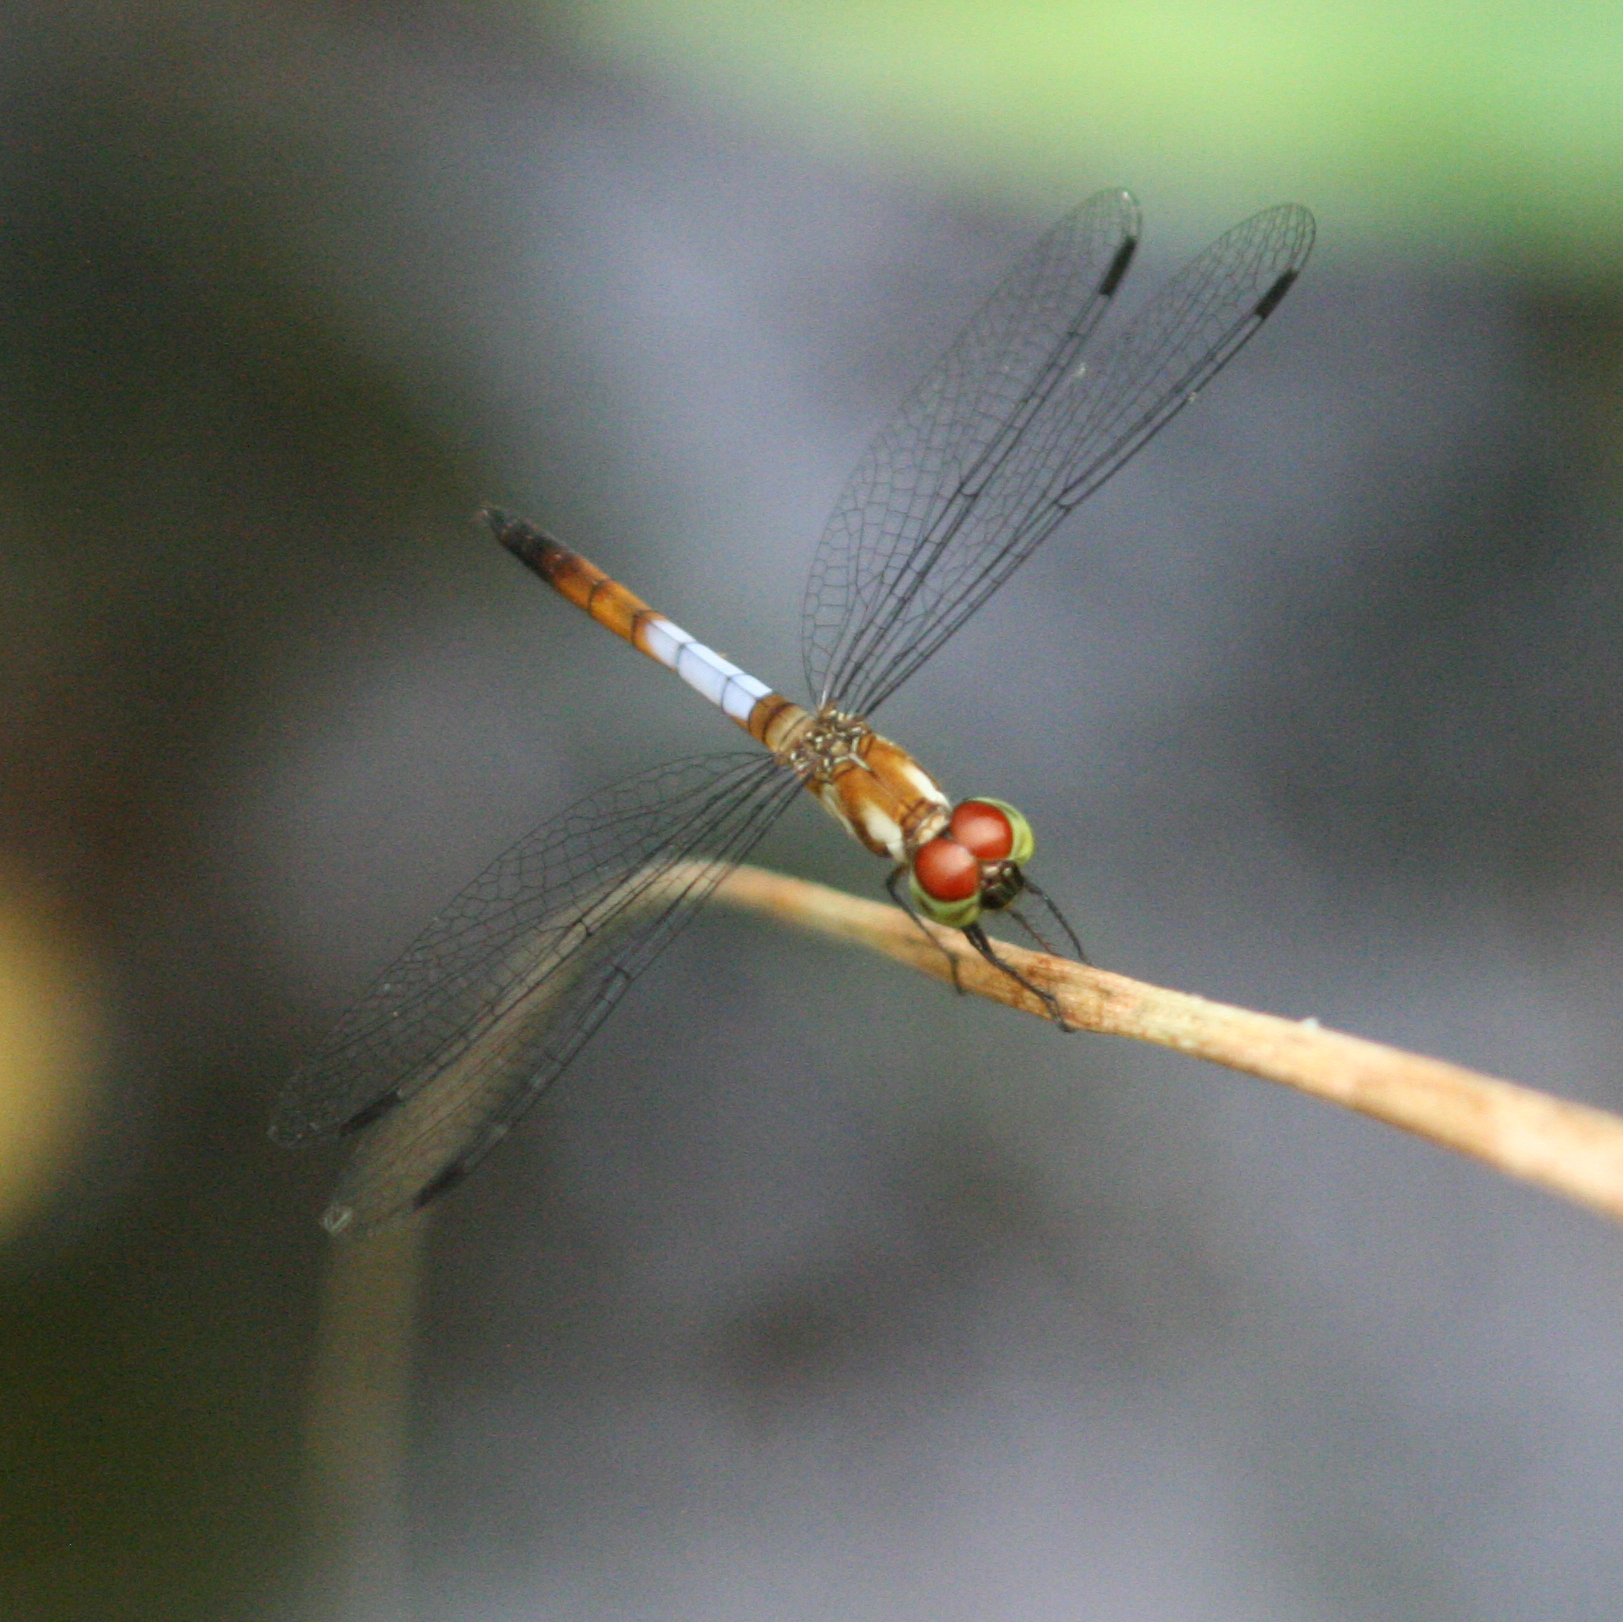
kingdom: Animalia
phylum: Arthropoda
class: Insecta
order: Odonata
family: Libellulidae
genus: Brachygonia
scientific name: Brachygonia oculata
